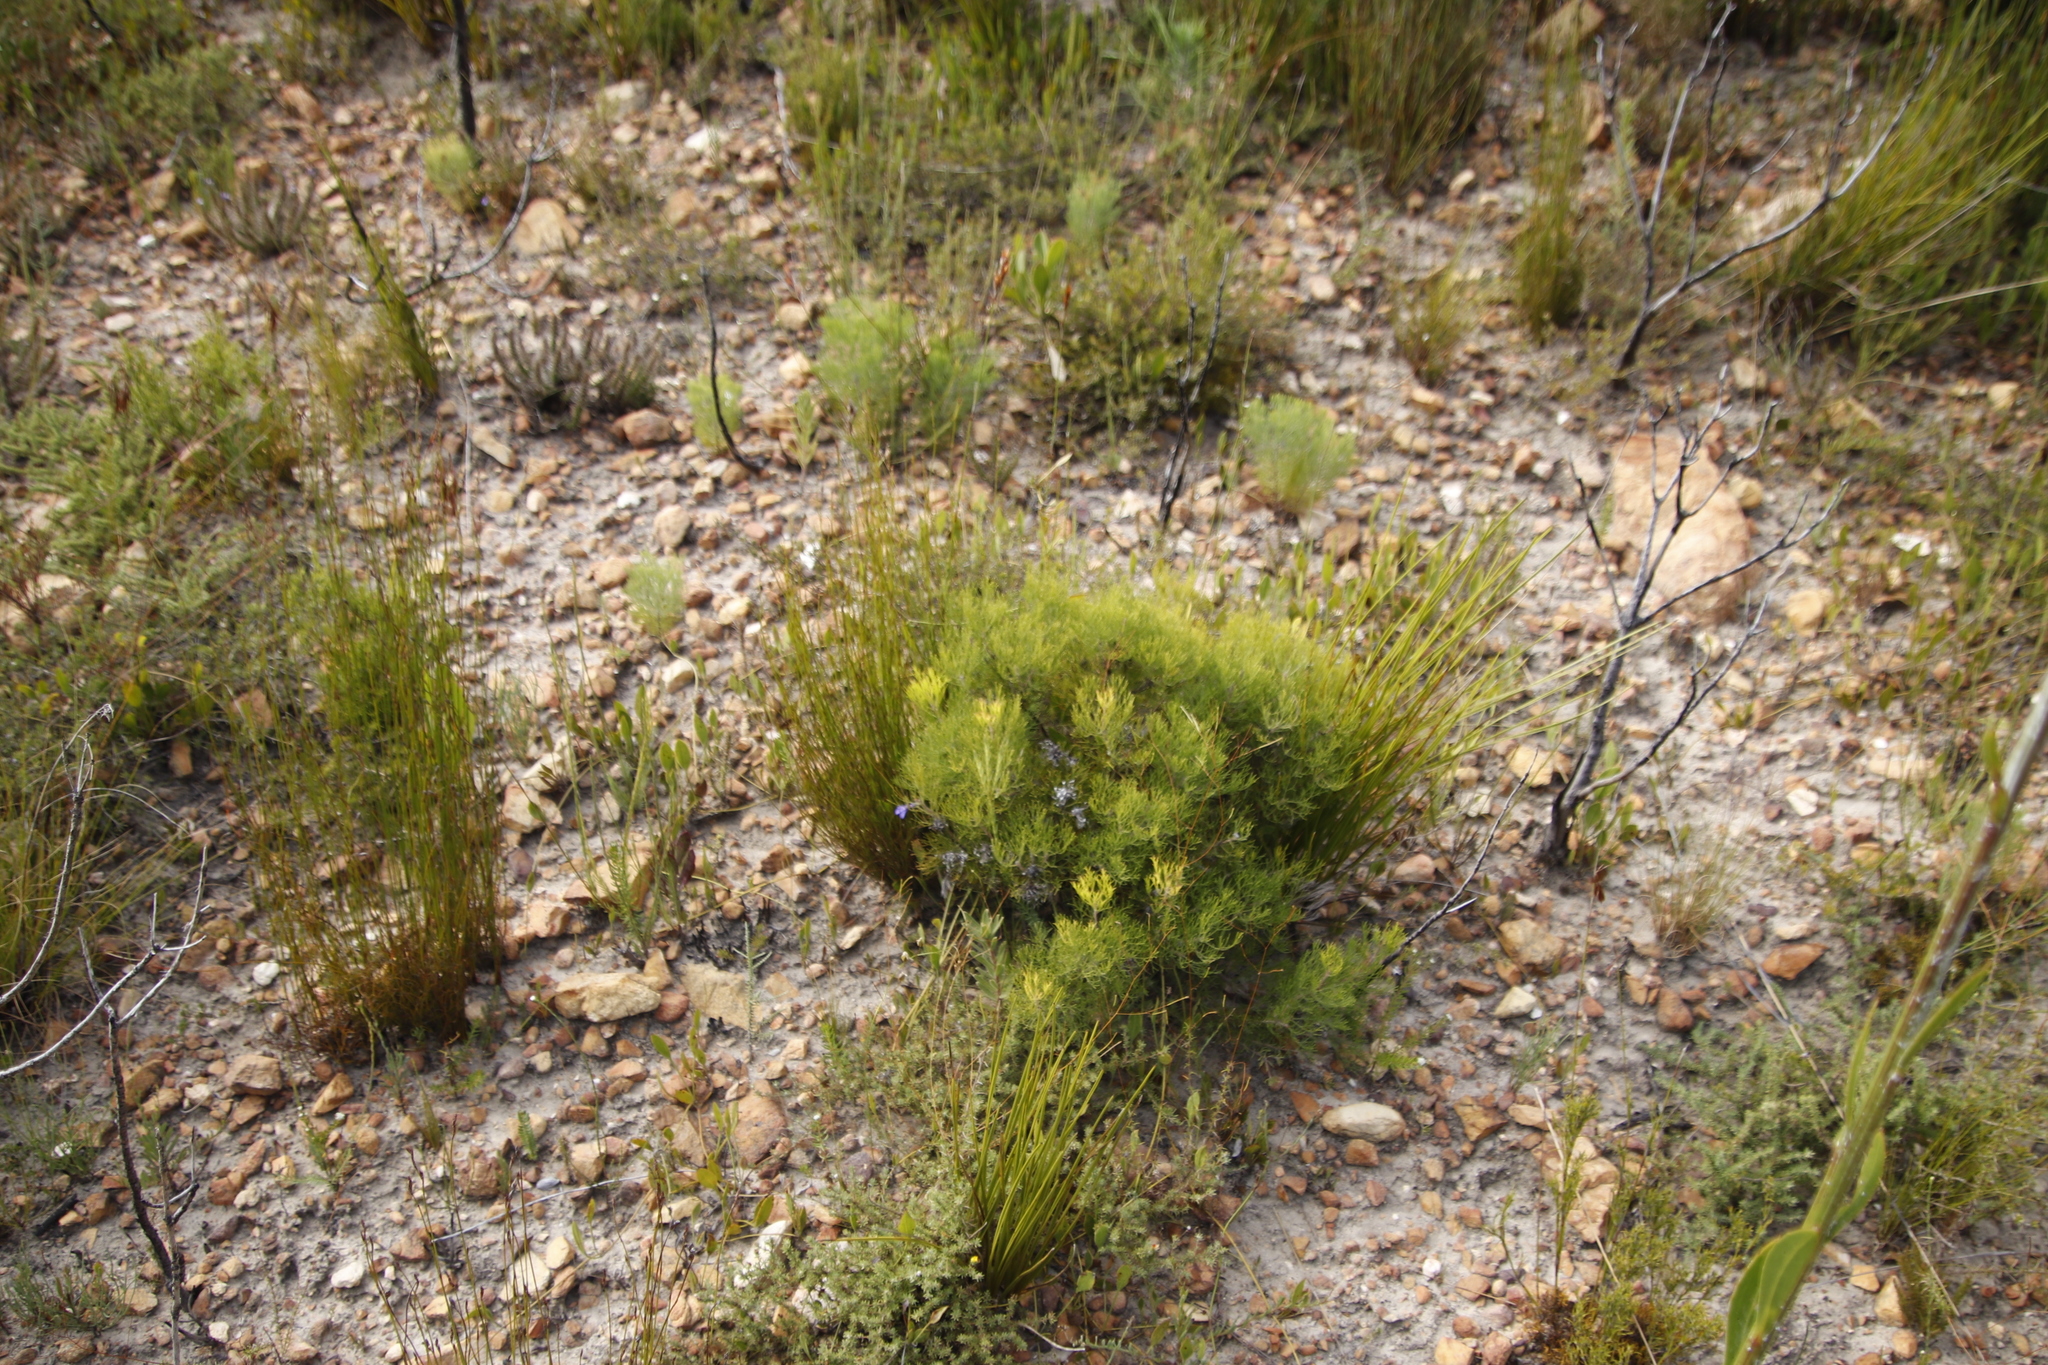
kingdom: Plantae
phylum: Tracheophyta
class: Magnoliopsida
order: Proteales
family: Proteaceae
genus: Serruria
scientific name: Serruria
